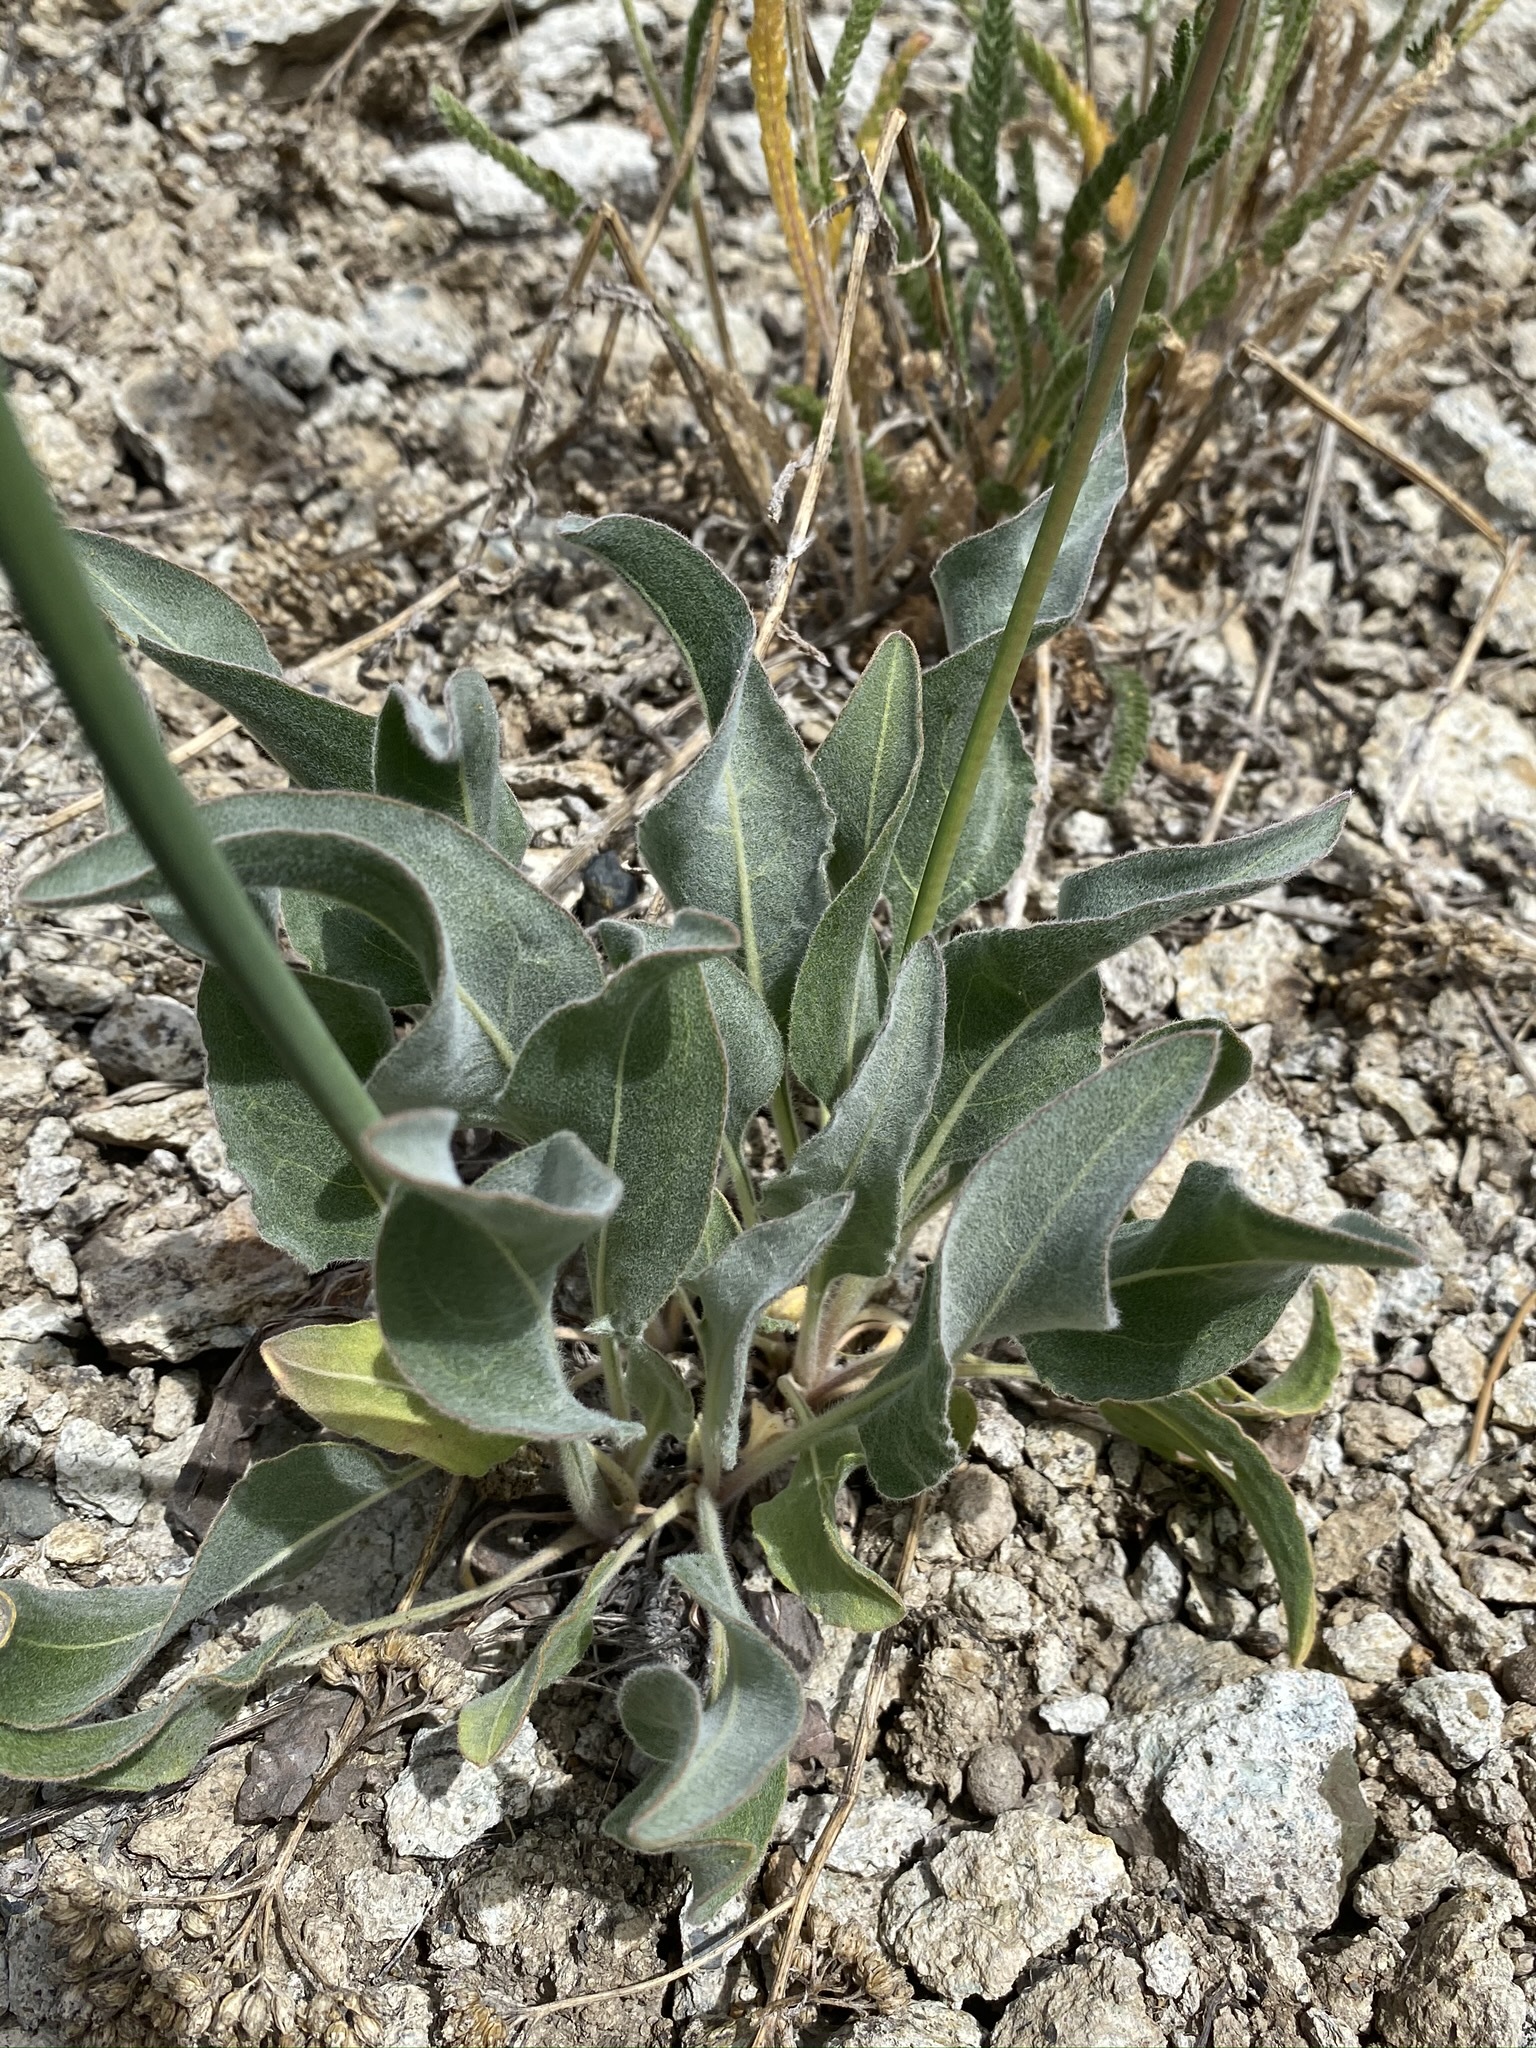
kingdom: Plantae
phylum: Tracheophyta
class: Magnoliopsida
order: Caryophyllales
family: Polygonaceae
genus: Eriogonum
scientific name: Eriogonum elatum
